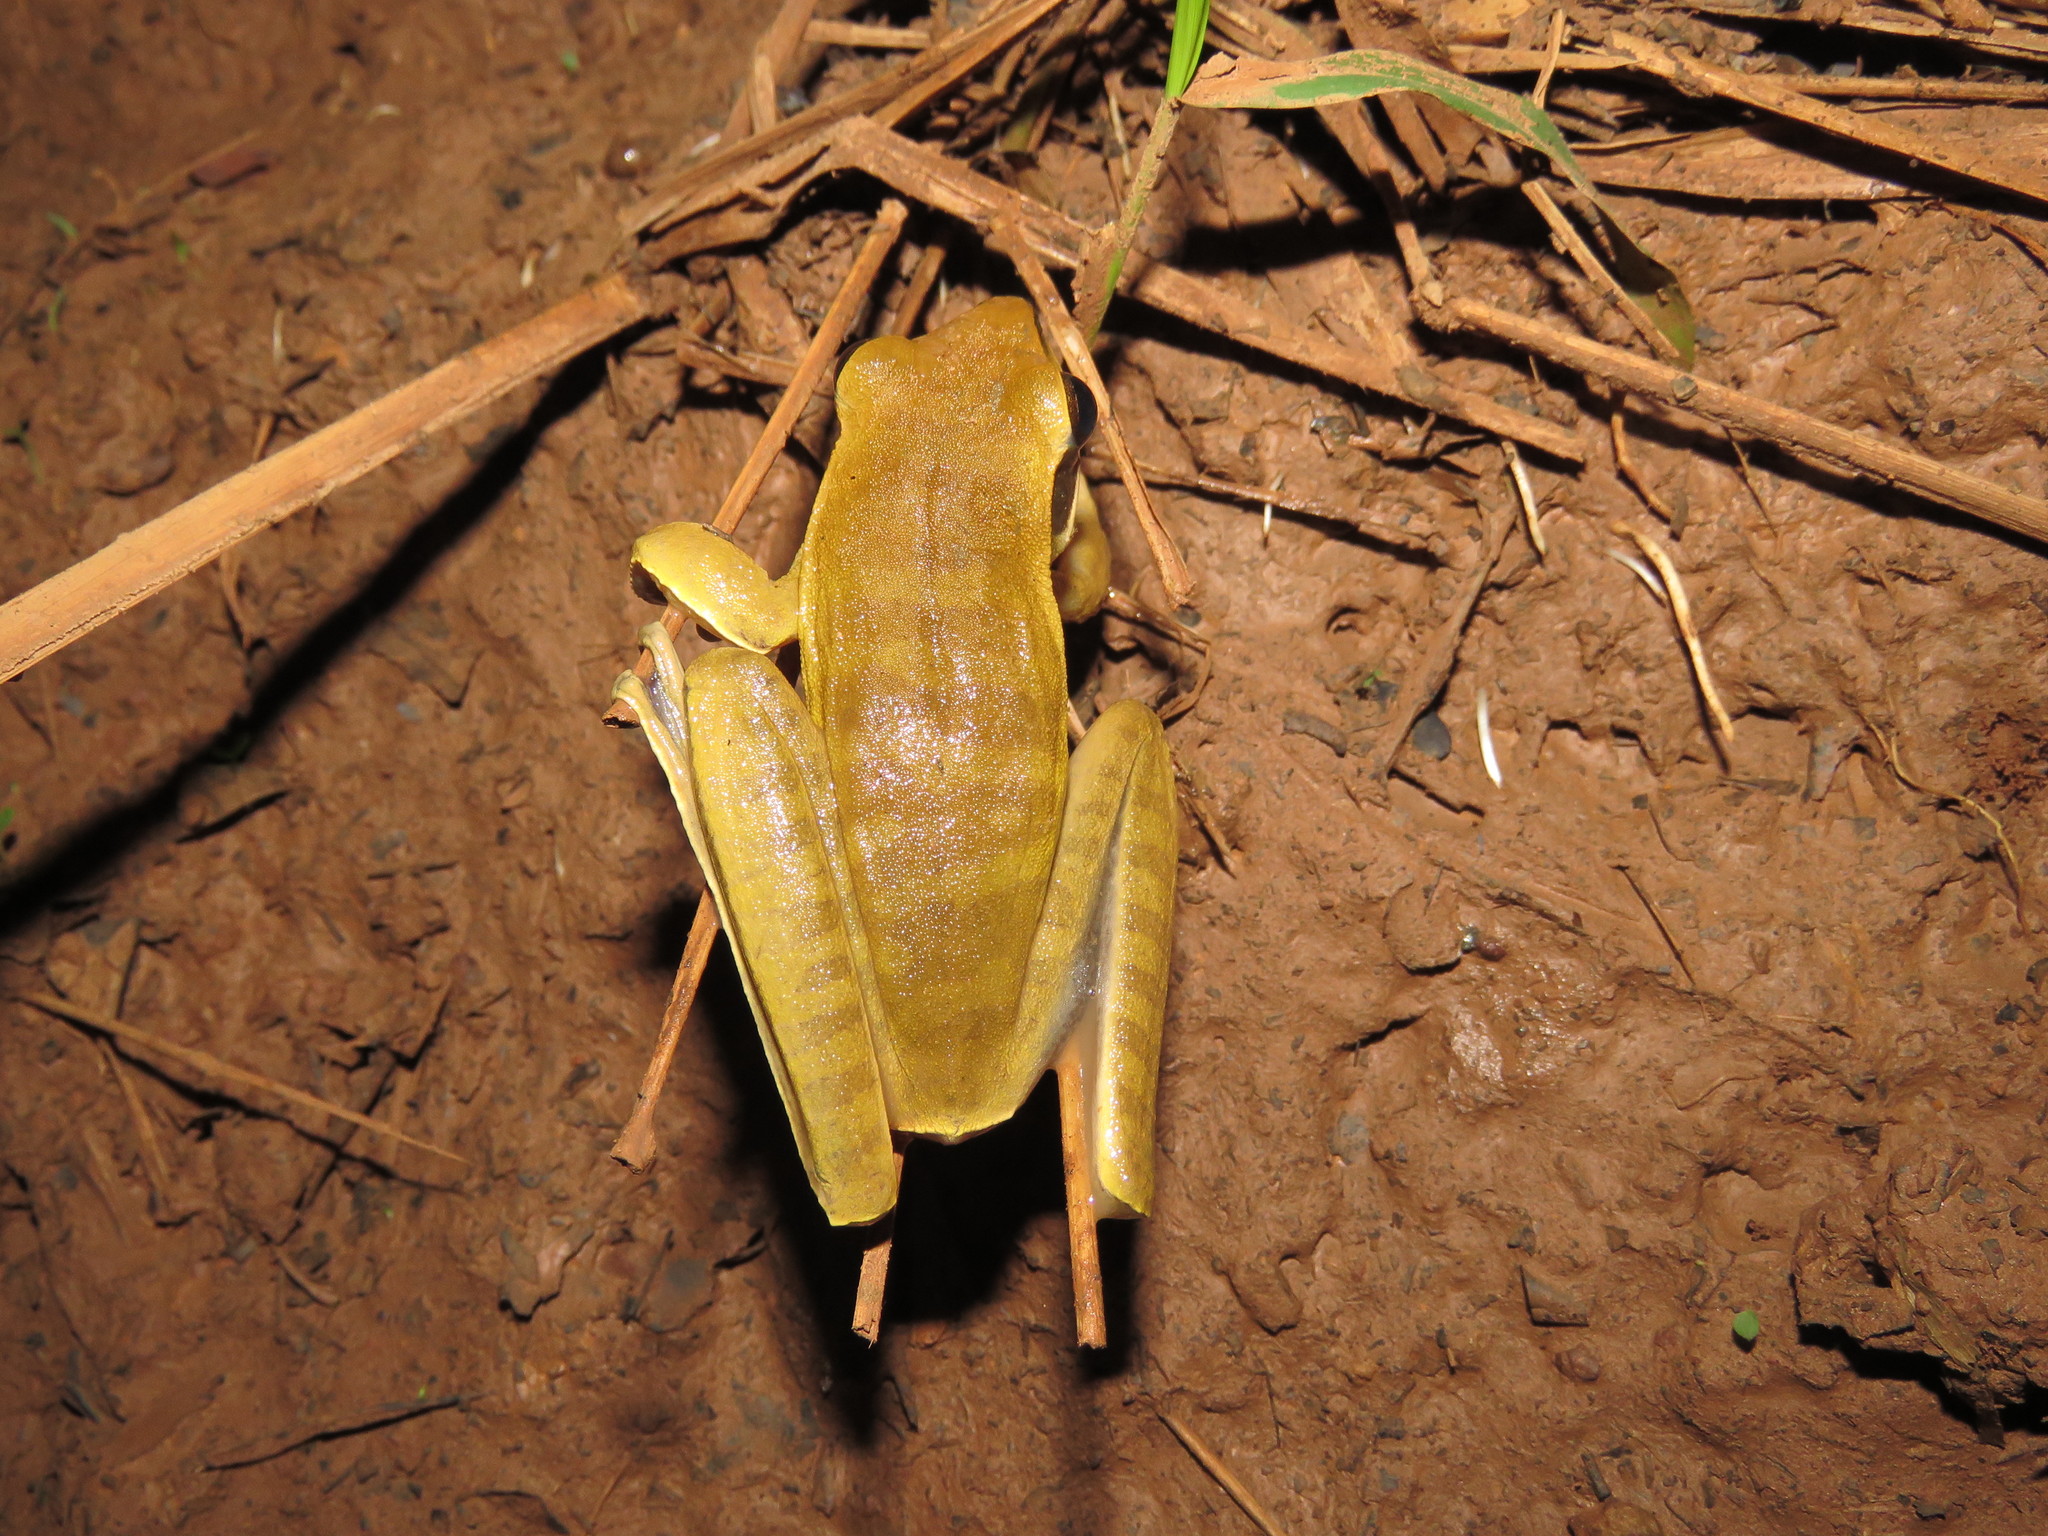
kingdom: Animalia
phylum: Chordata
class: Amphibia
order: Anura
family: Hylidae
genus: Boana
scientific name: Boana lanciformis
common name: Rana lanceolada commún
